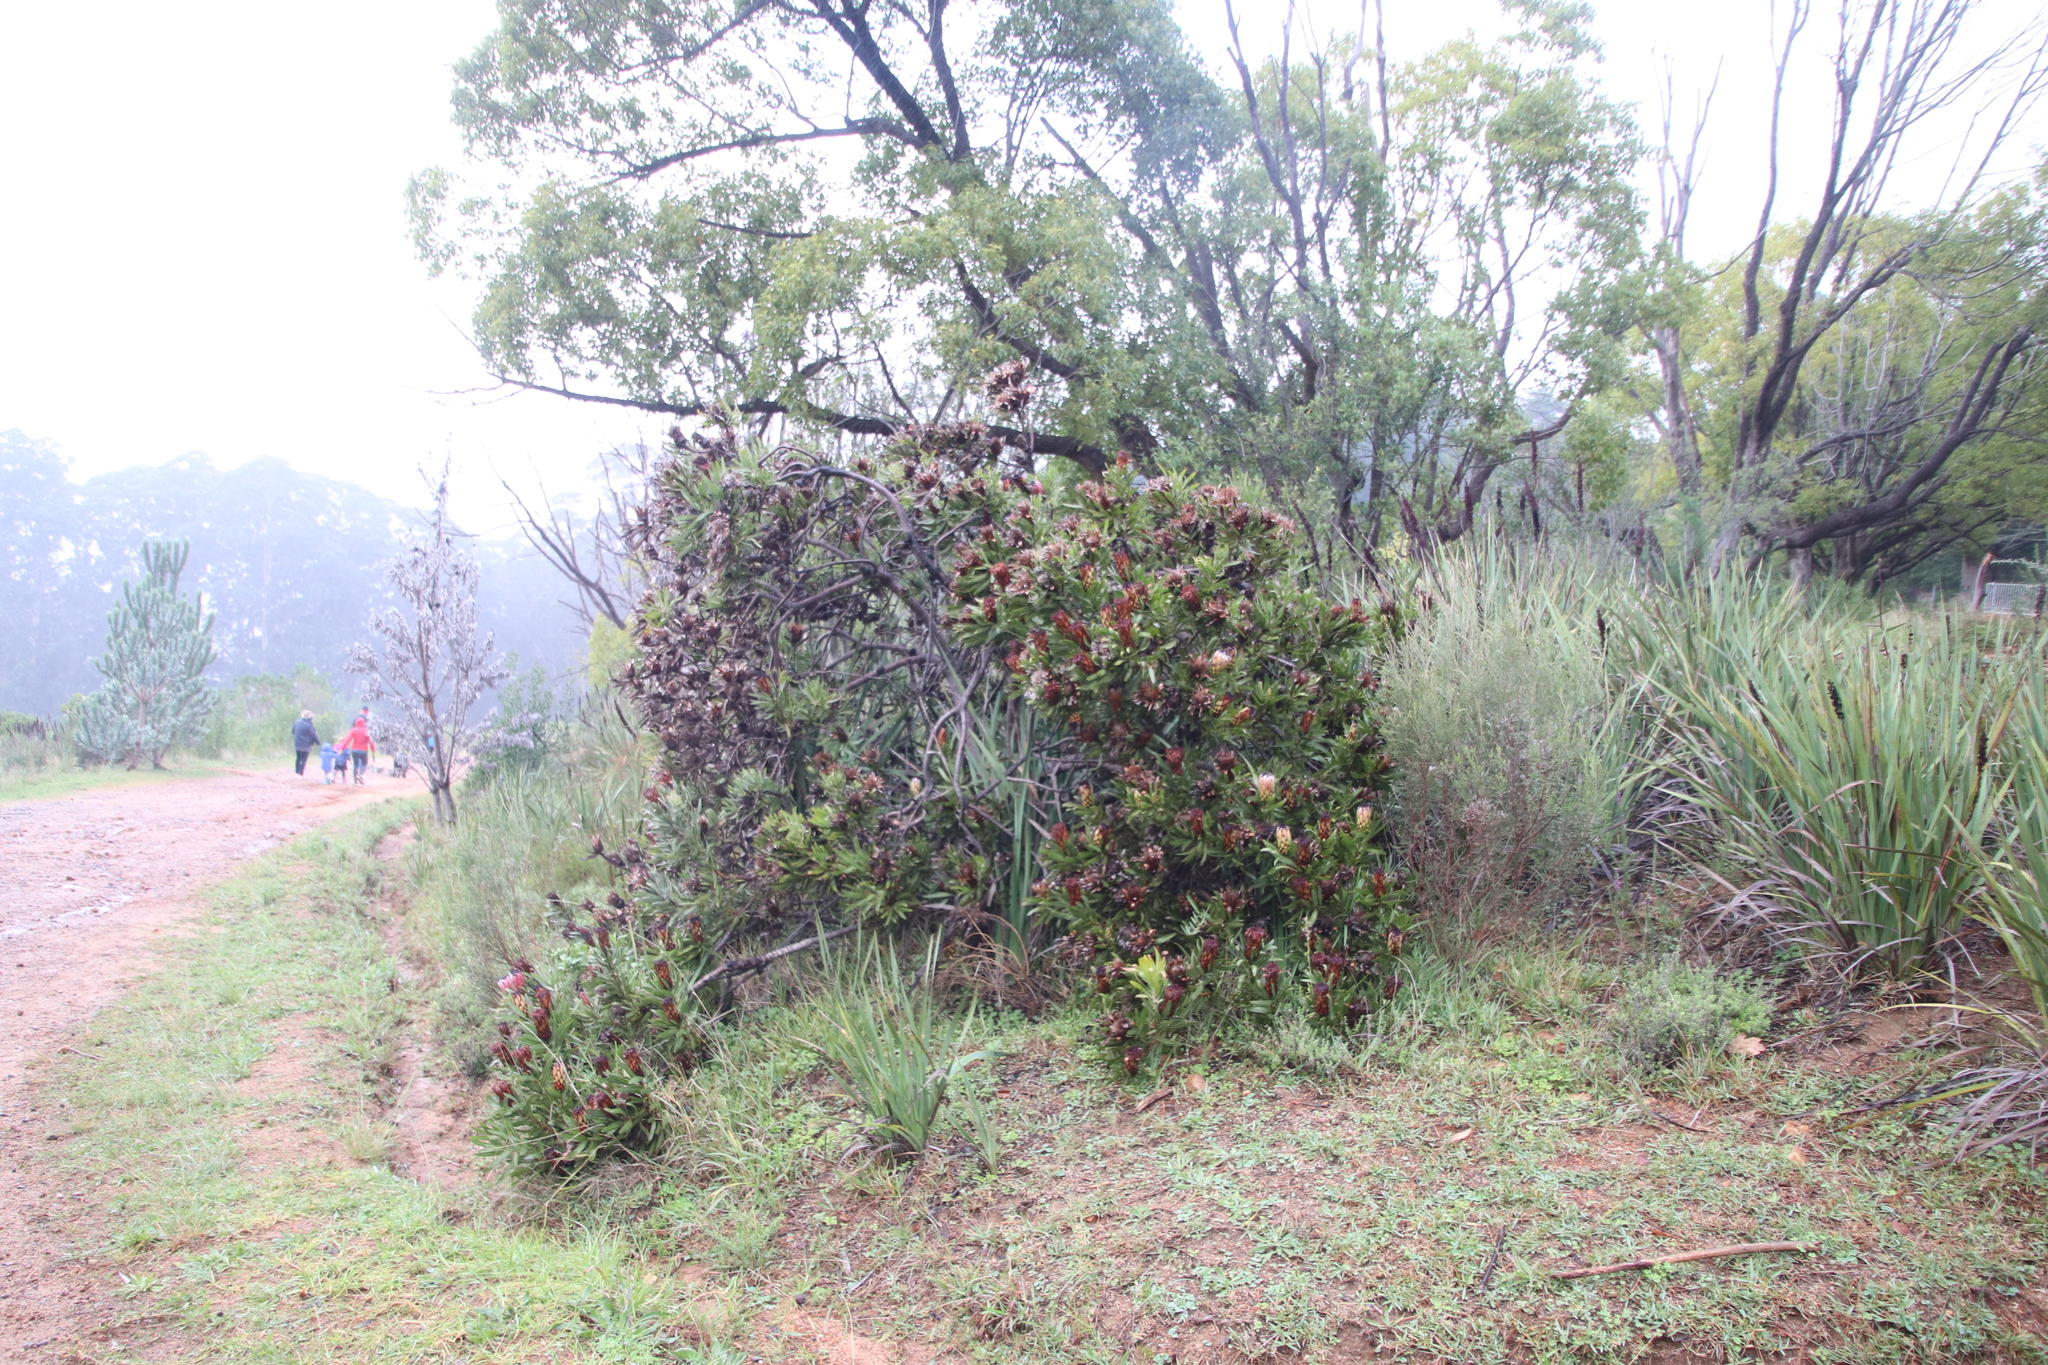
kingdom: Plantae
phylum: Tracheophyta
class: Magnoliopsida
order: Proteales
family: Proteaceae
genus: Protea
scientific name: Protea neriifolia
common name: Blue sugarbush
